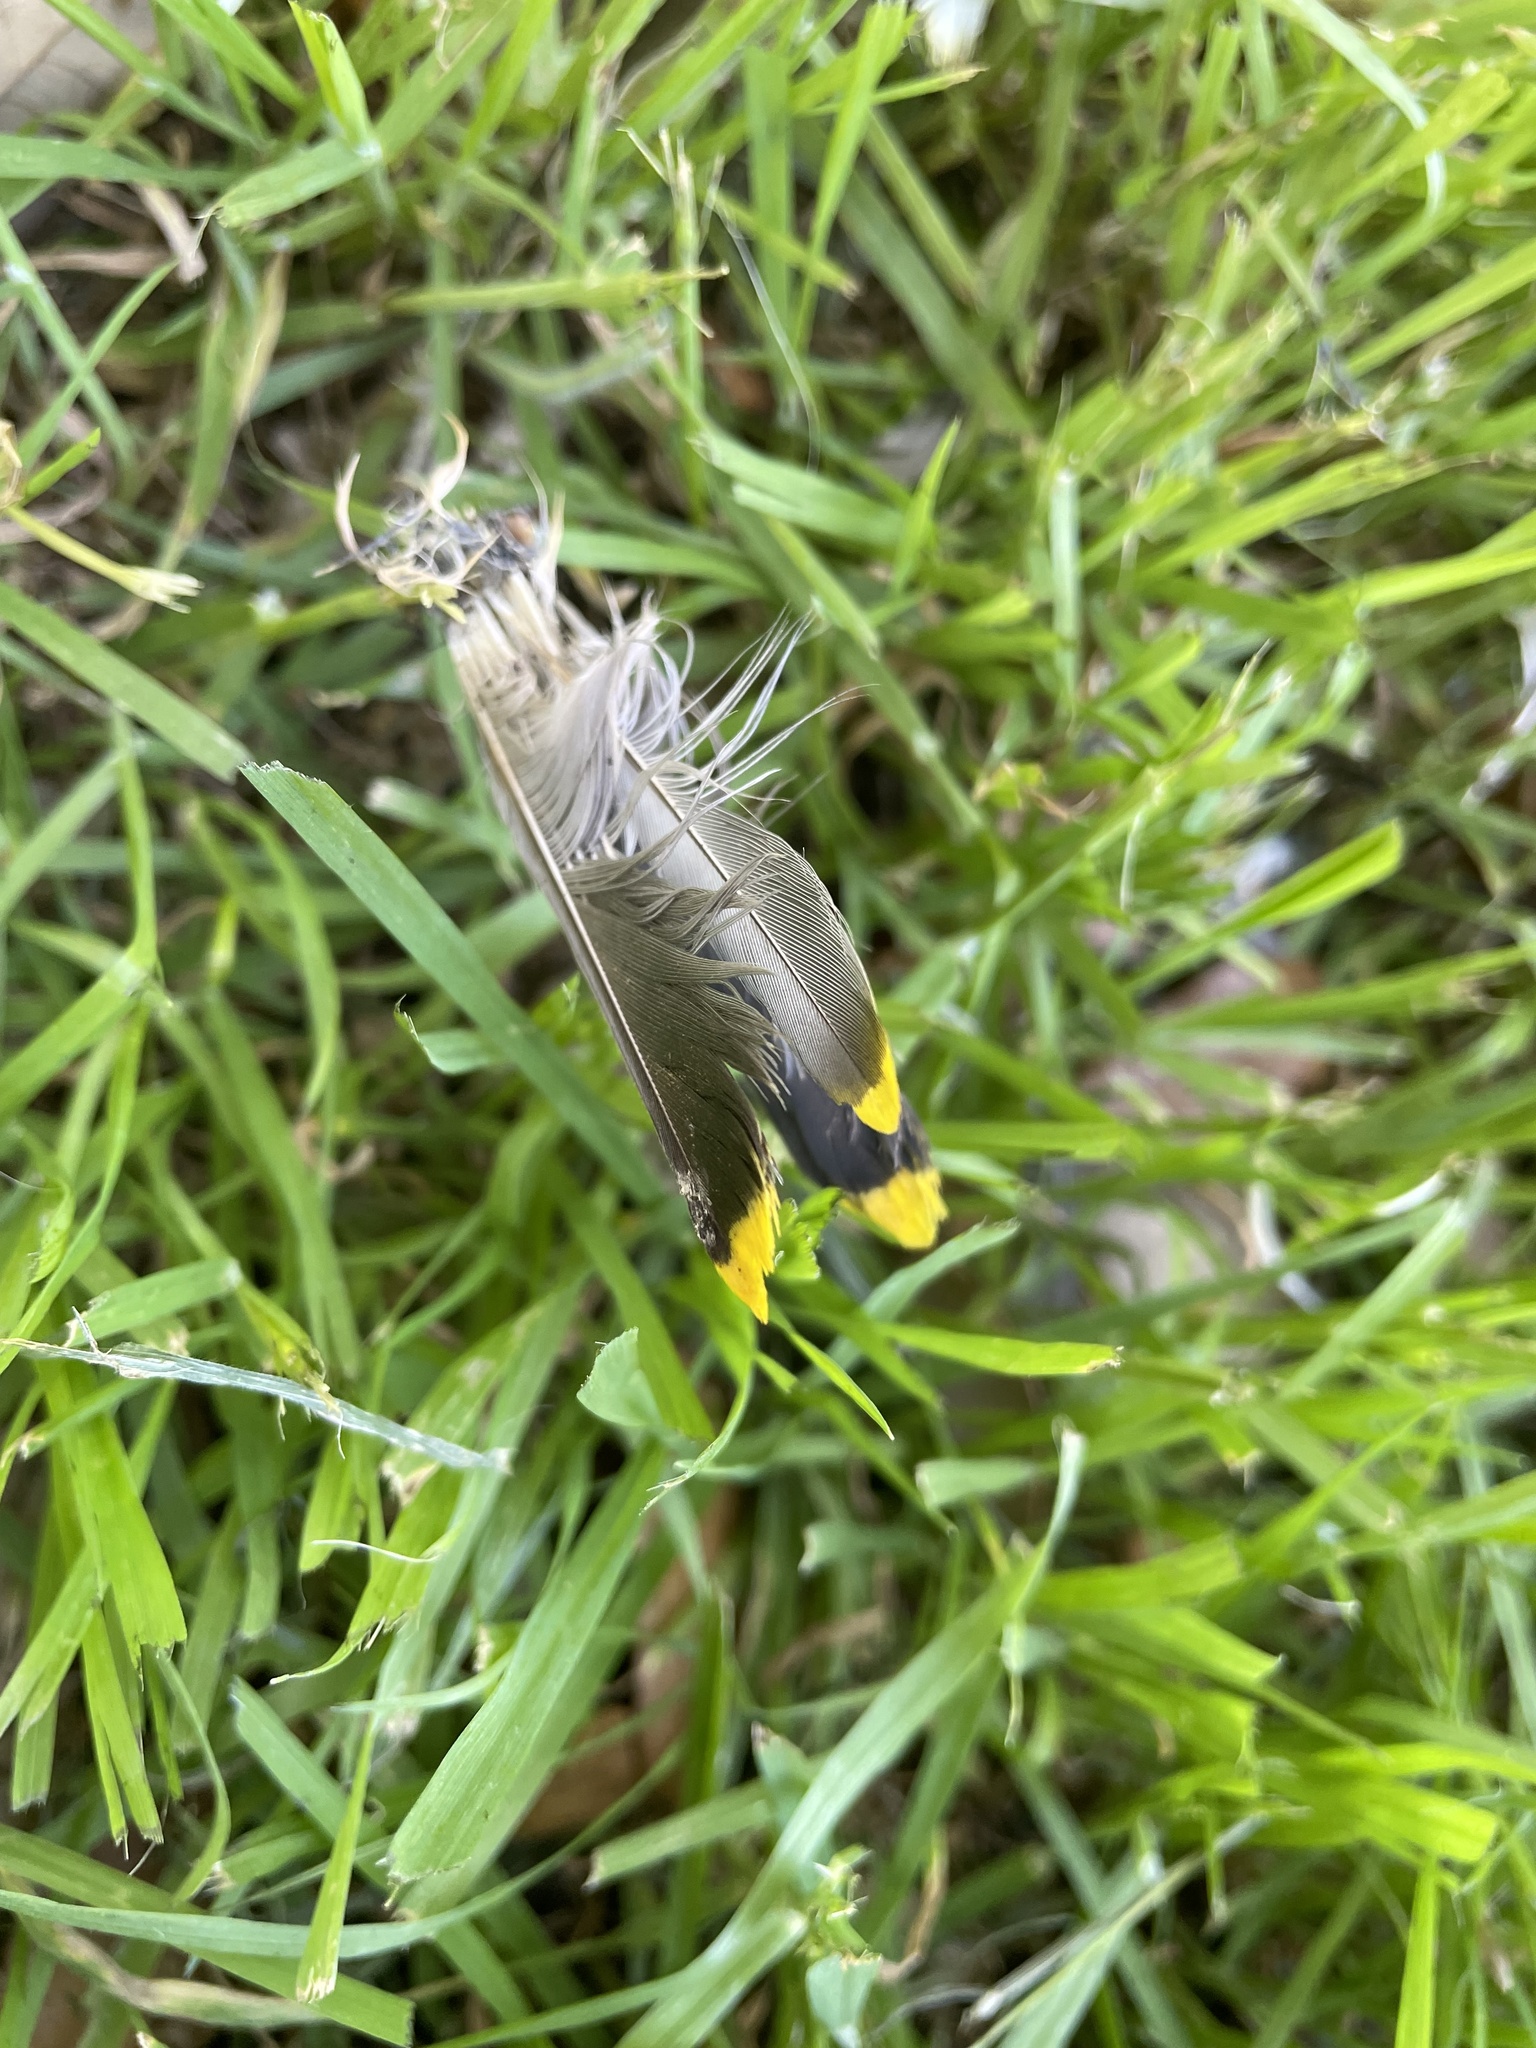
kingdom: Animalia
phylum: Chordata
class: Aves
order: Passeriformes
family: Bombycillidae
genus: Bombycilla
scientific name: Bombycilla cedrorum
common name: Cedar waxwing
